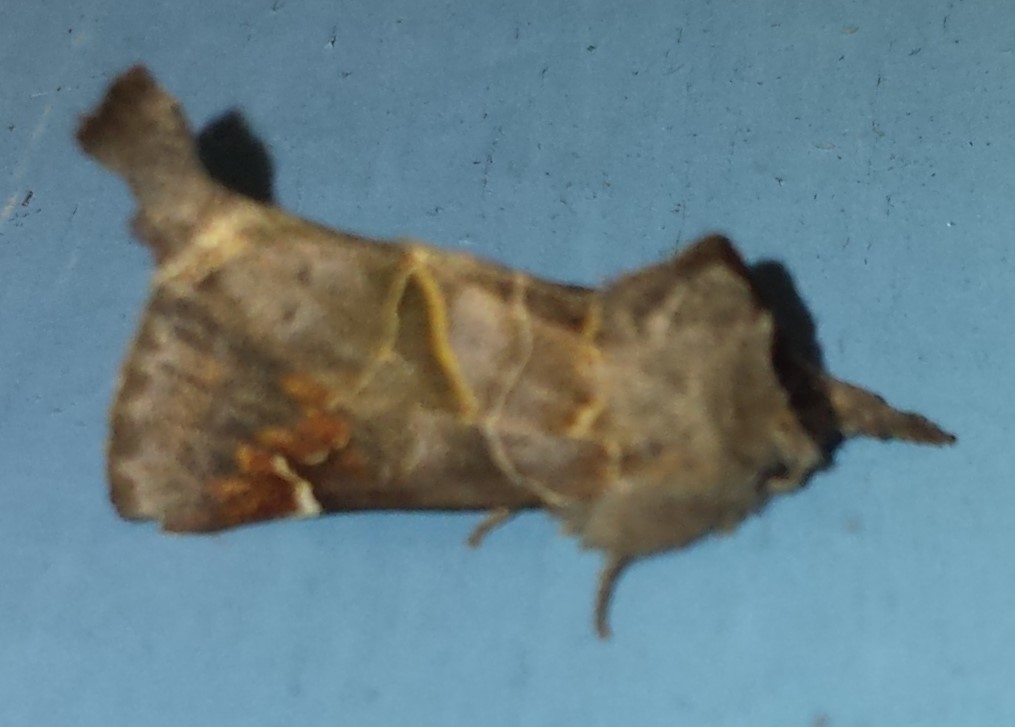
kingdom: Animalia
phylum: Arthropoda
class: Insecta
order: Lepidoptera
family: Notodontidae
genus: Clostera
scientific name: Clostera apicalis
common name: Apical prominent
